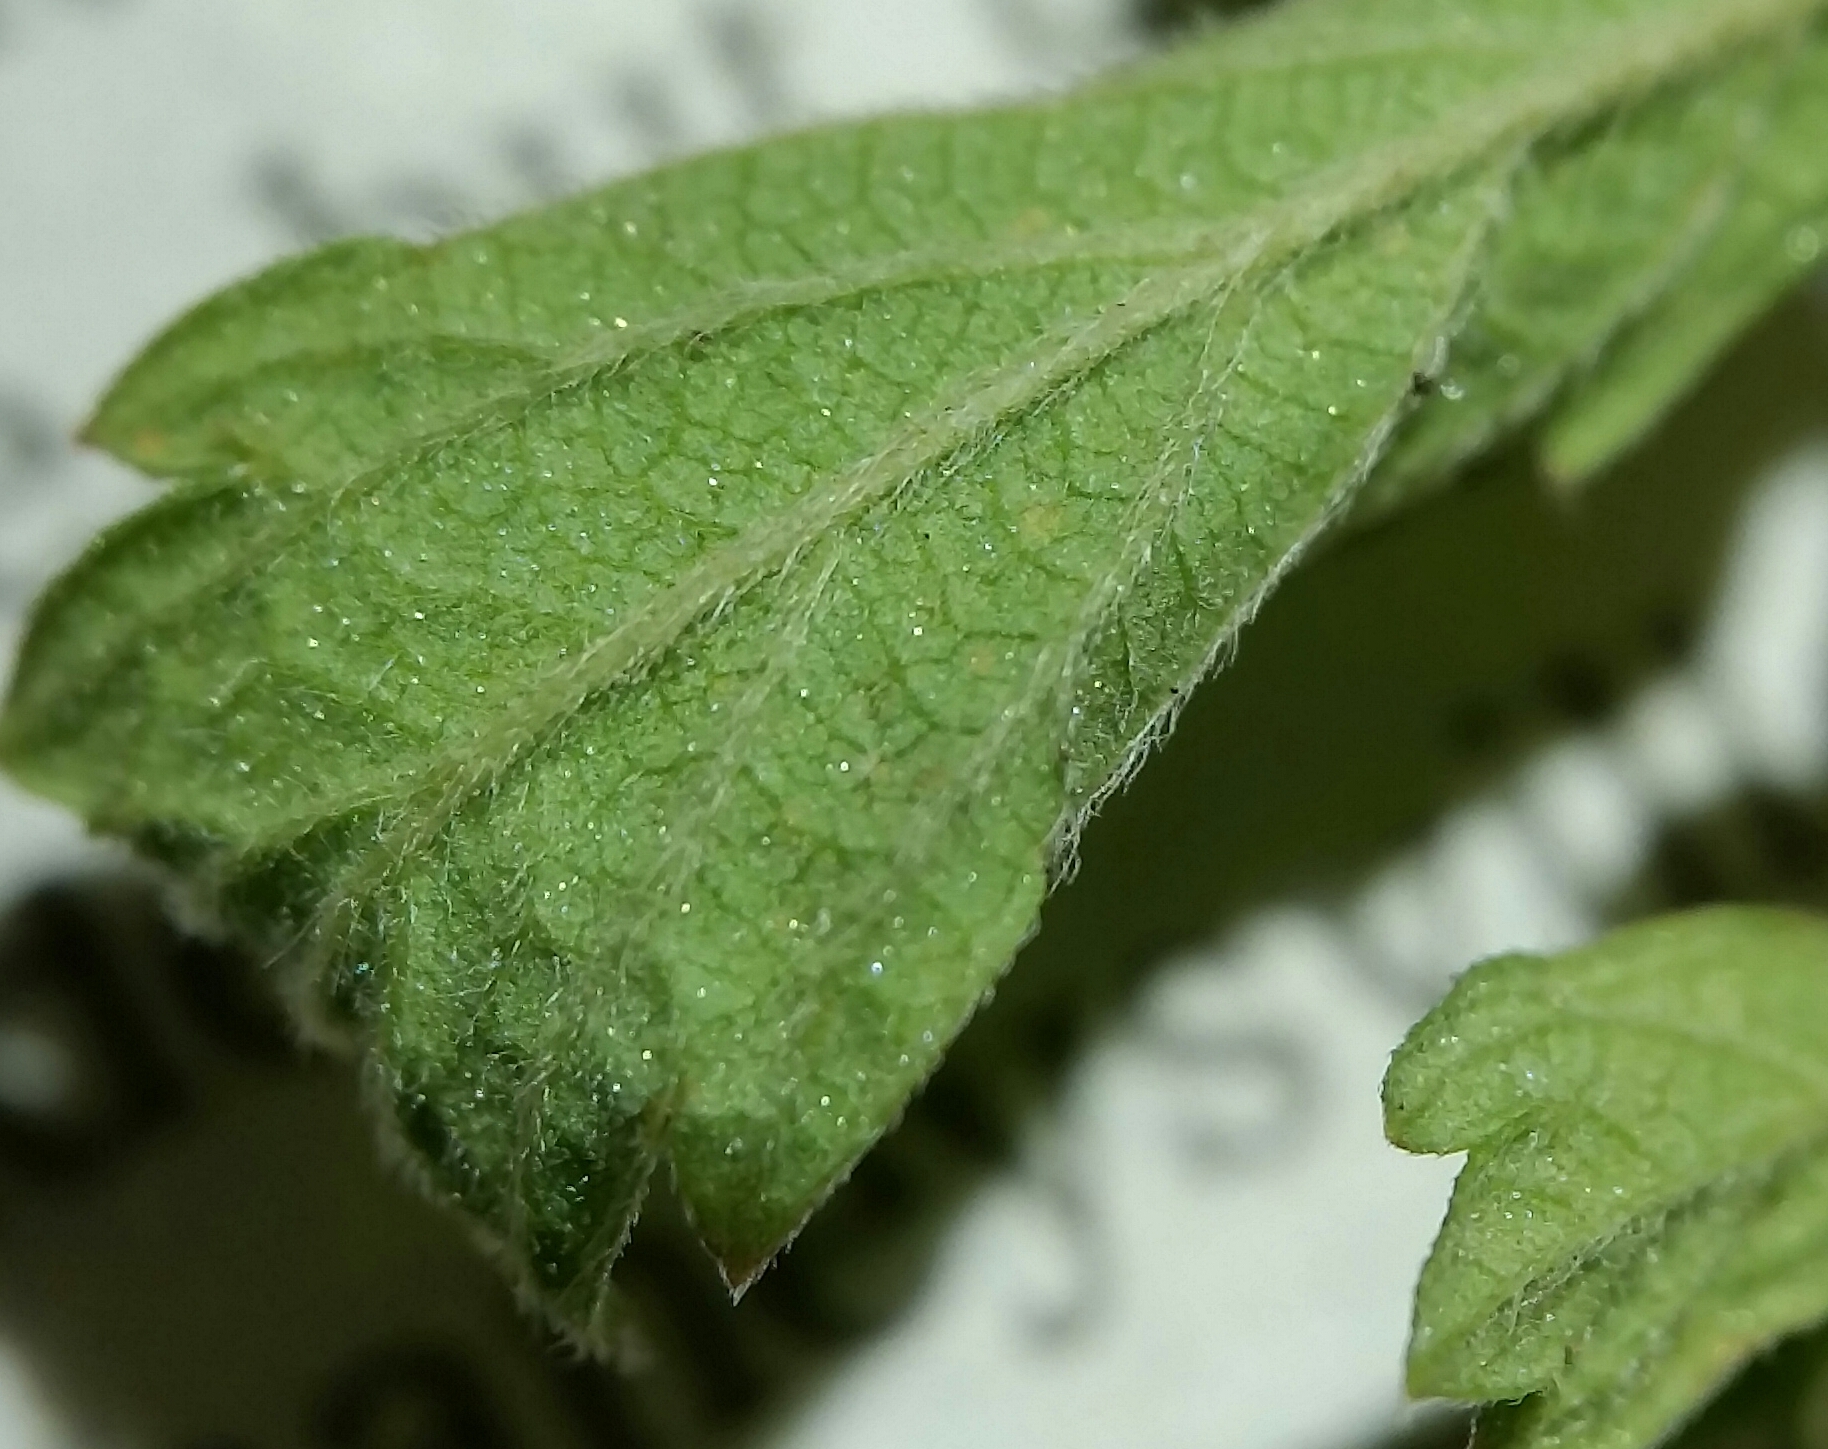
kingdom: Plantae
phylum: Tracheophyta
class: Magnoliopsida
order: Rosales
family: Rosaceae
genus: Agrimonia
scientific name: Agrimonia parviflora
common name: Harvest-lice
